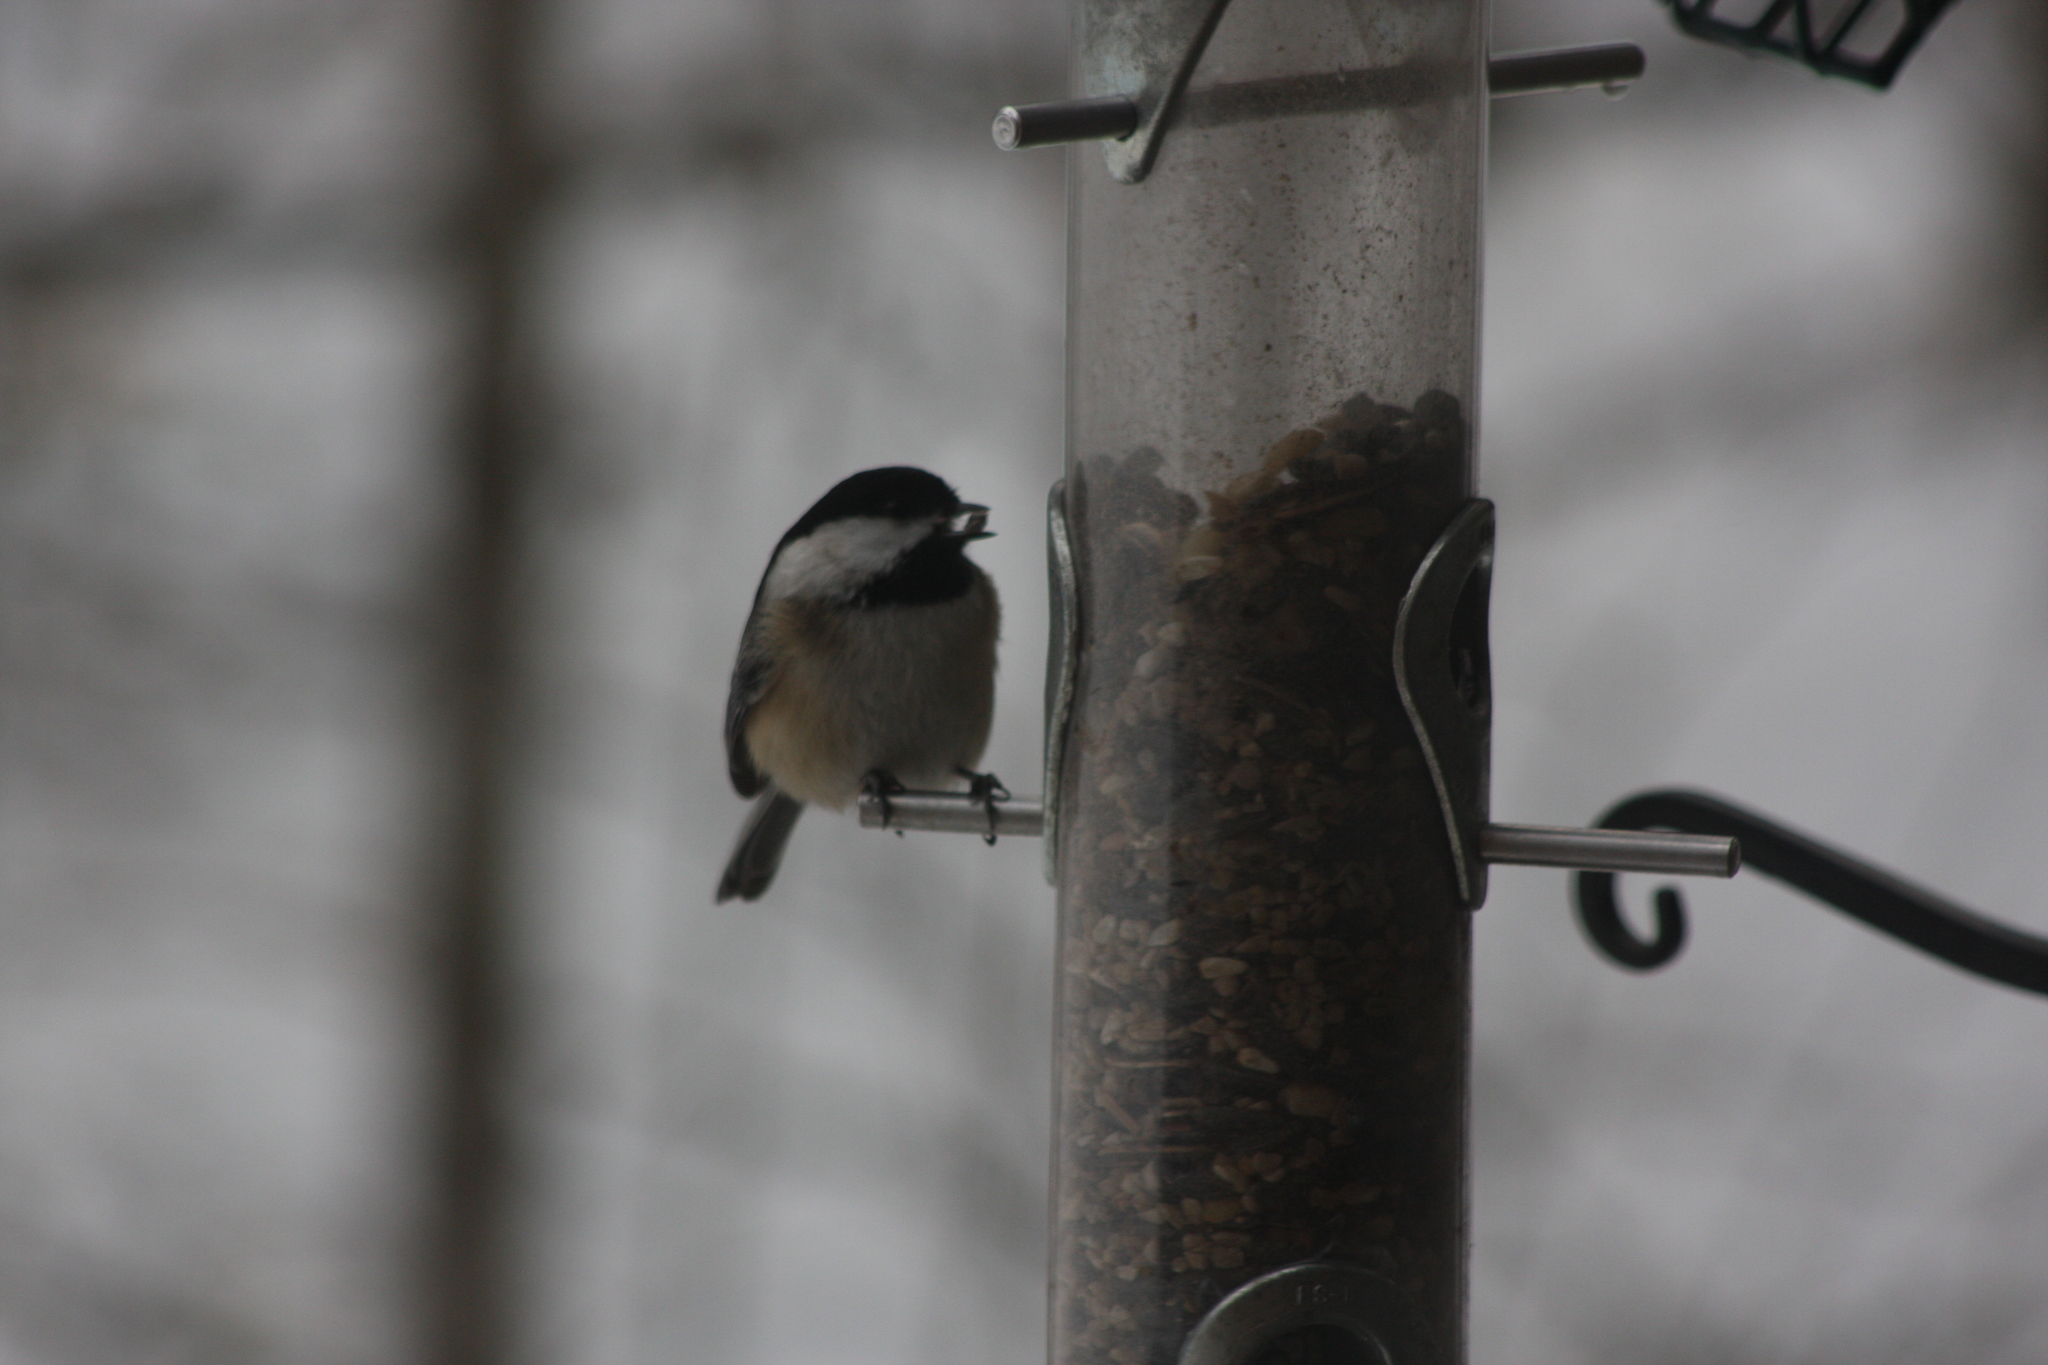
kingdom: Animalia
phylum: Chordata
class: Aves
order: Passeriformes
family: Paridae
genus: Poecile
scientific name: Poecile atricapillus
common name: Black-capped chickadee
